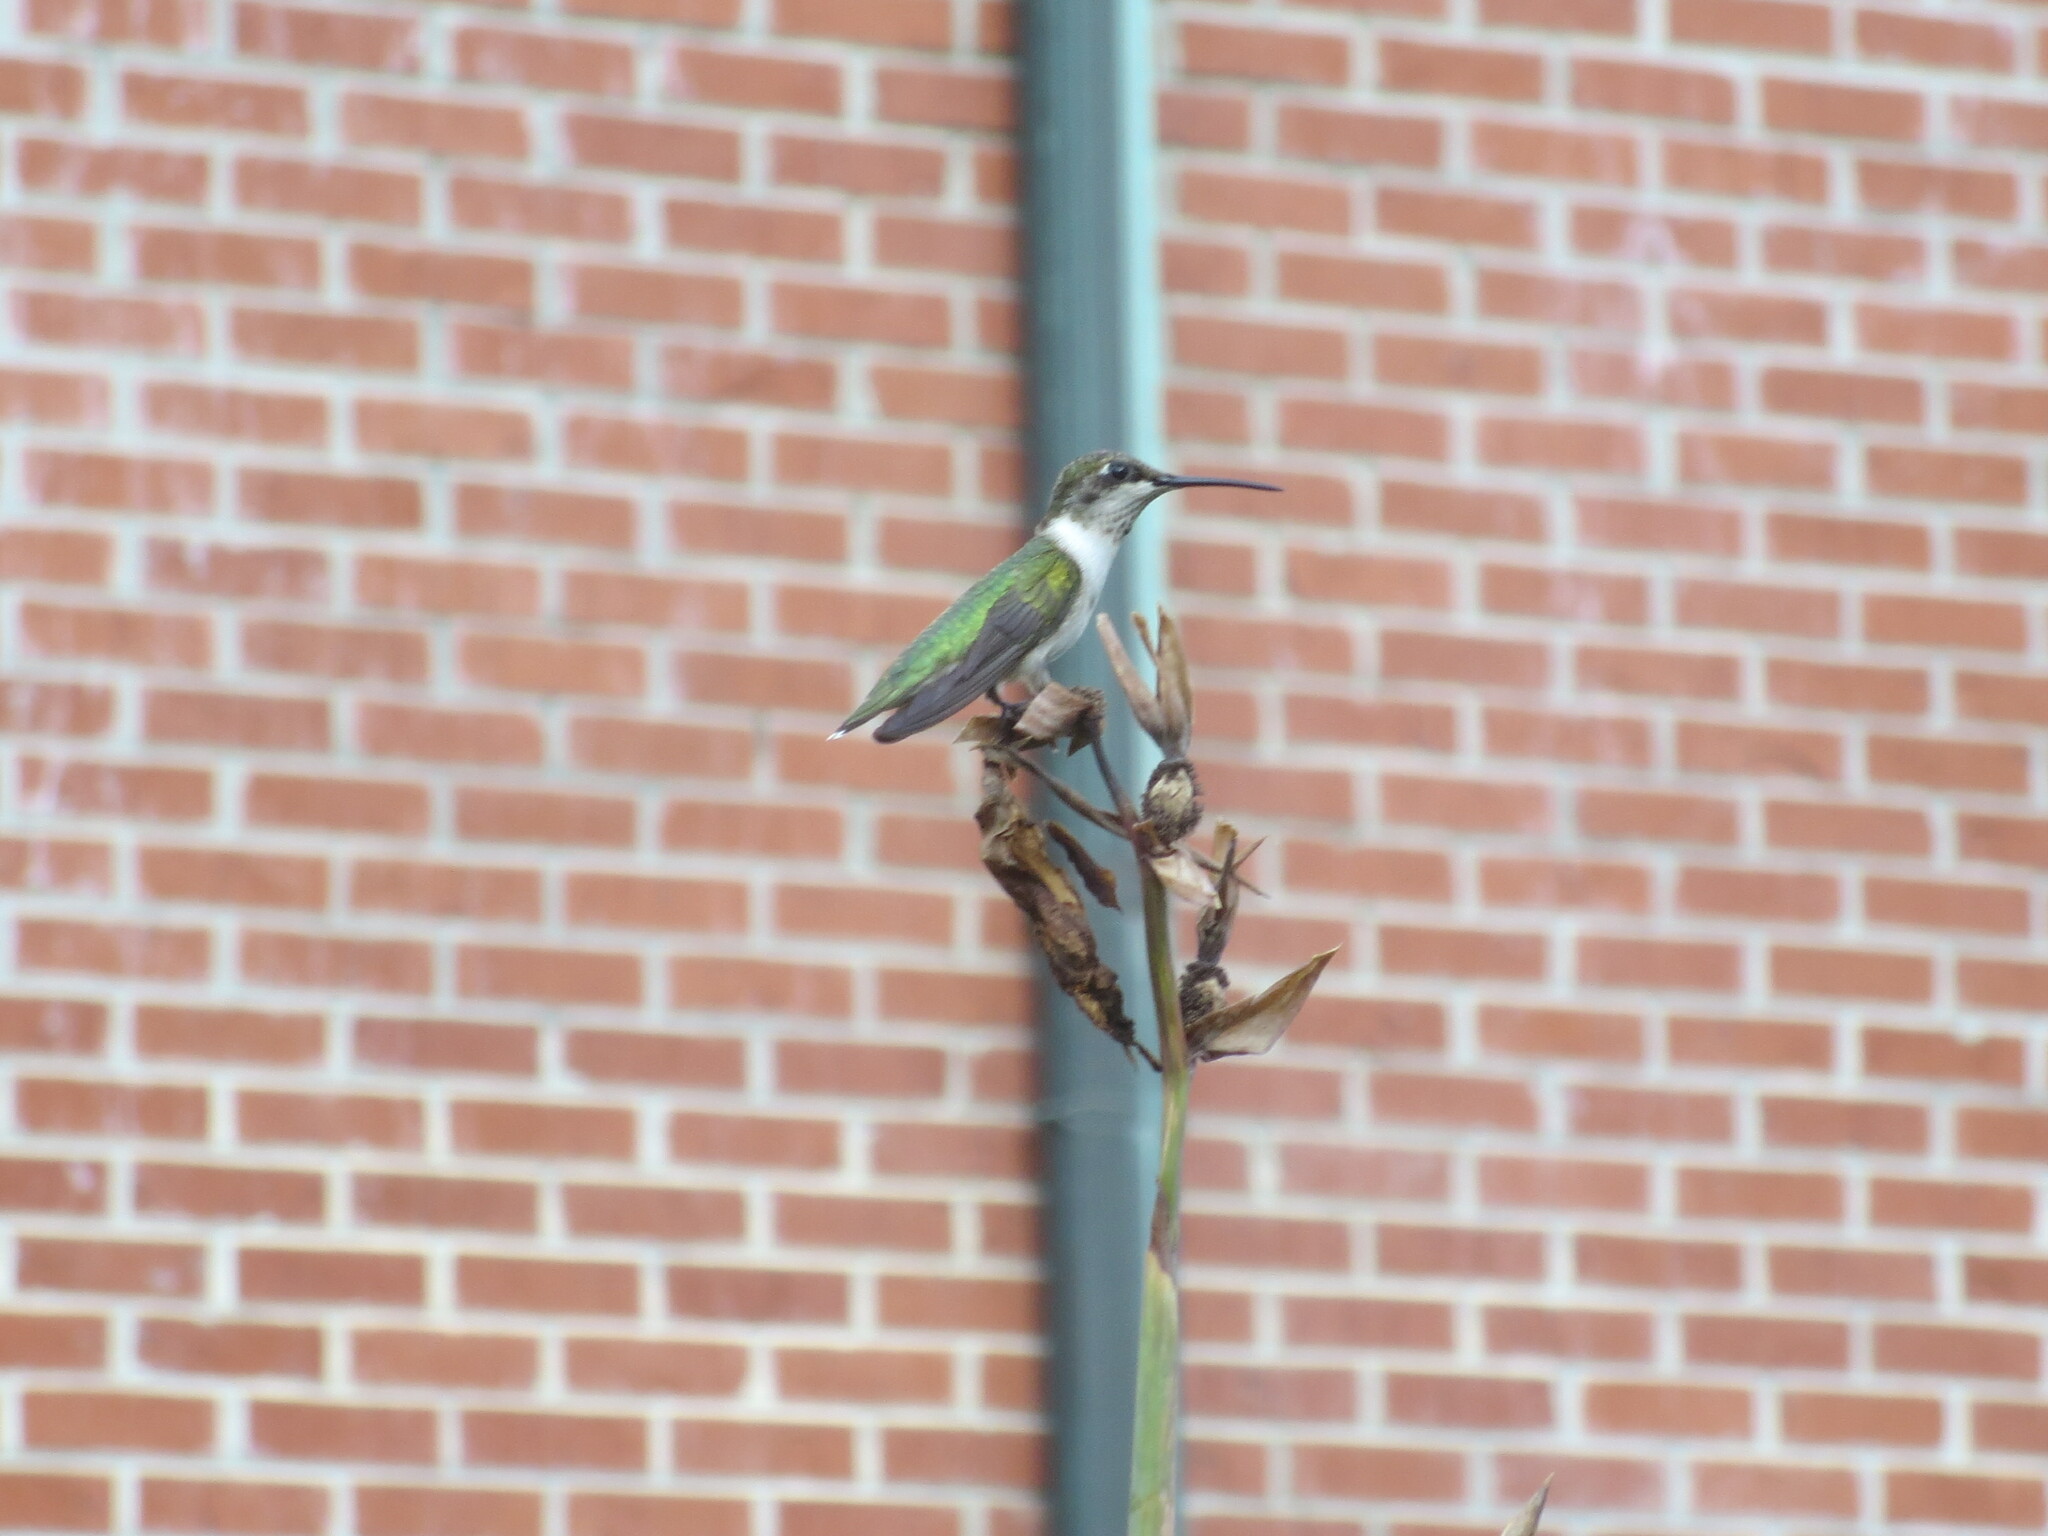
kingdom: Animalia
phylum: Chordata
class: Aves
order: Apodiformes
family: Trochilidae
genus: Archilochus
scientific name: Archilochus colubris
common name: Ruby-throated hummingbird
